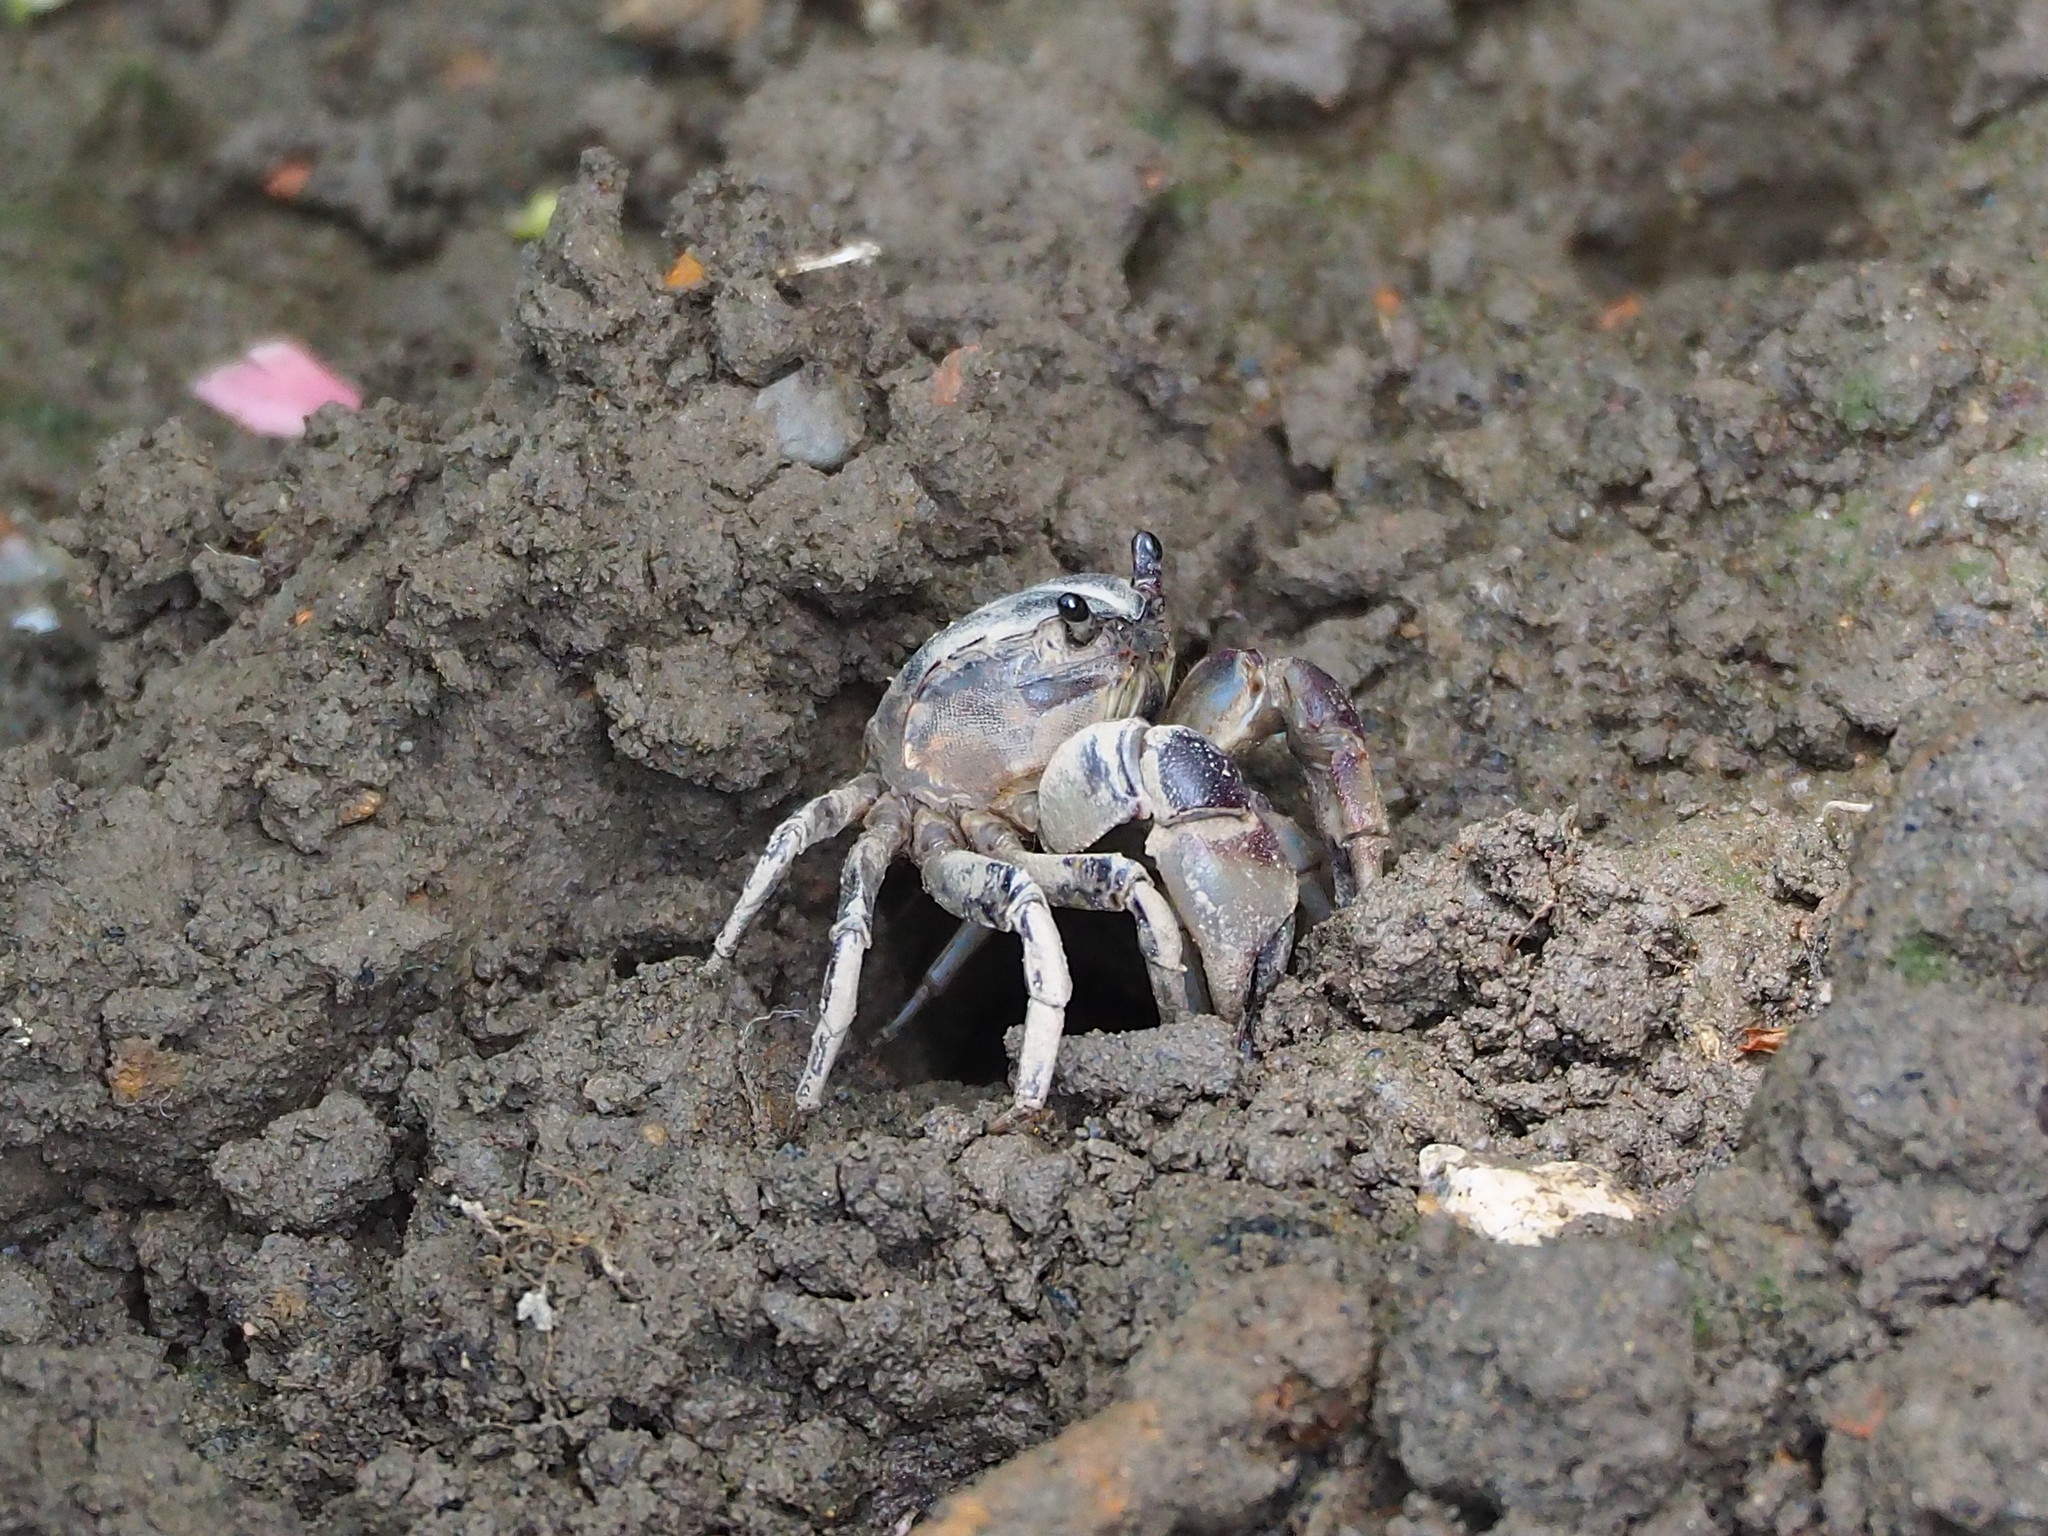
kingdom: Animalia
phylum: Arthropoda
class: Malacostraca
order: Decapoda
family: Varunidae
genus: Pseudohelice
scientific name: Pseudohelice subquadrata
